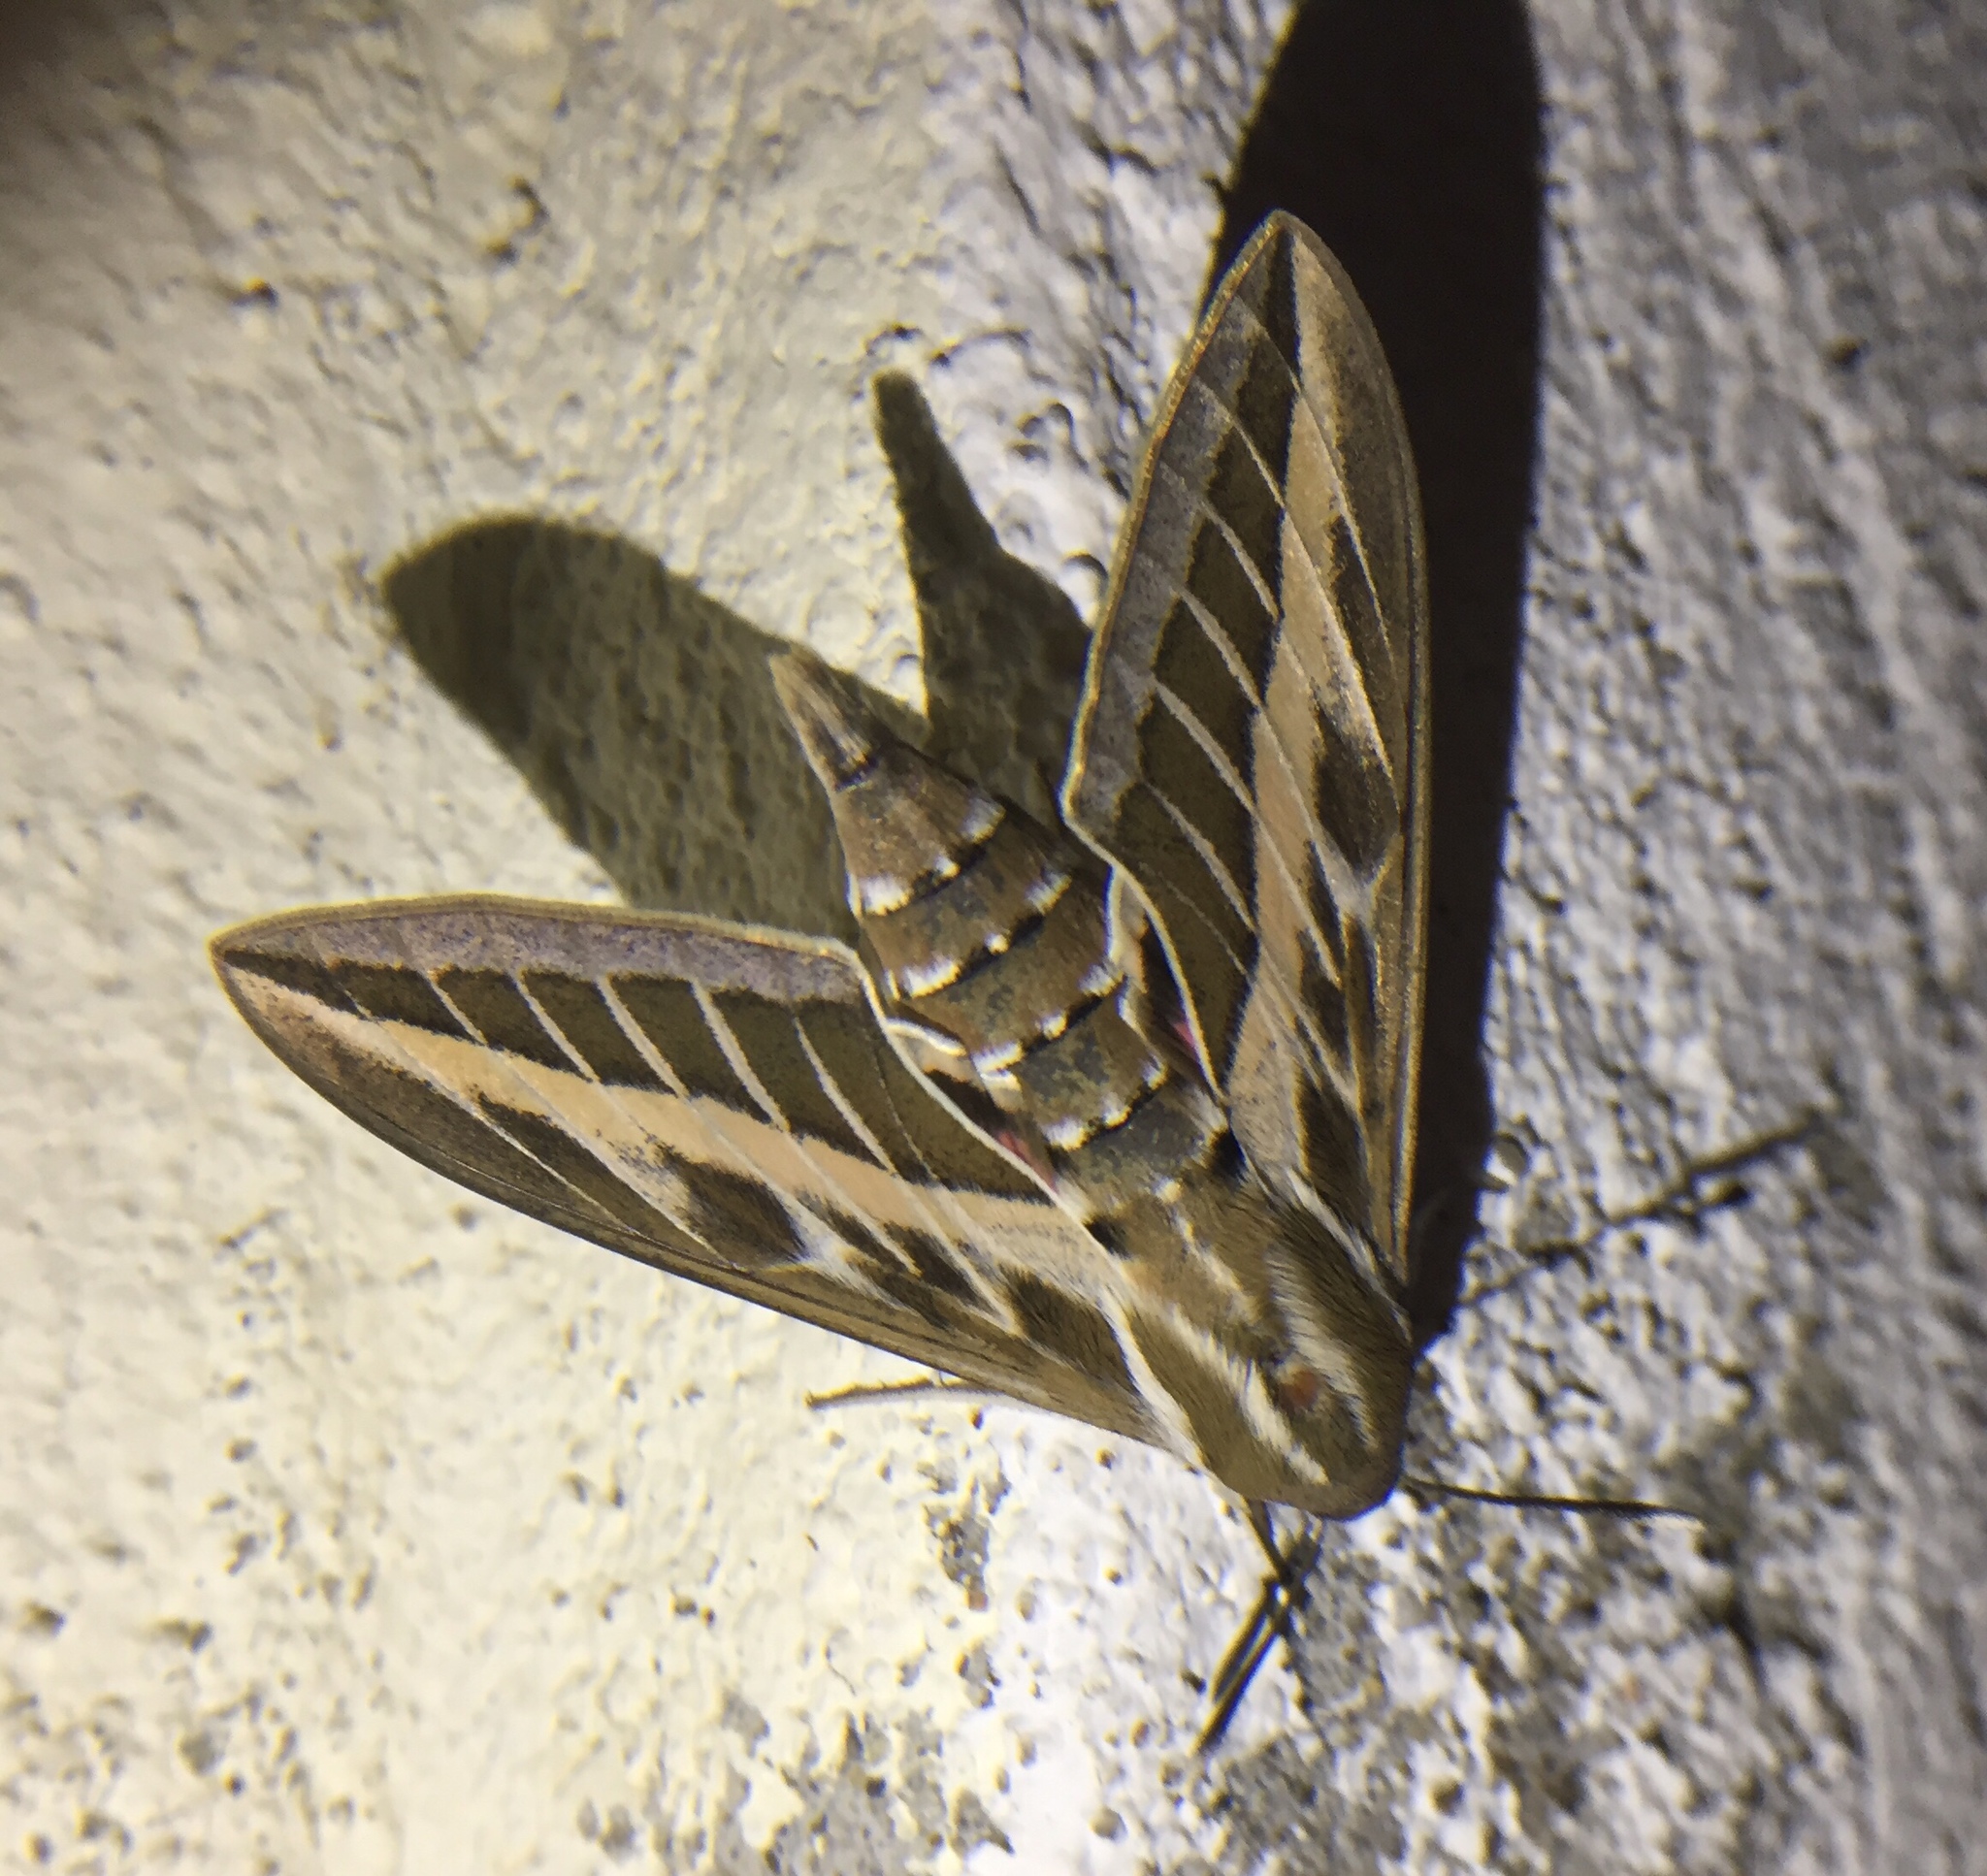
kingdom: Animalia
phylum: Arthropoda
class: Insecta
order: Lepidoptera
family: Sphingidae
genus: Hyles
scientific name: Hyles livornica
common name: Striped hawk-moth
